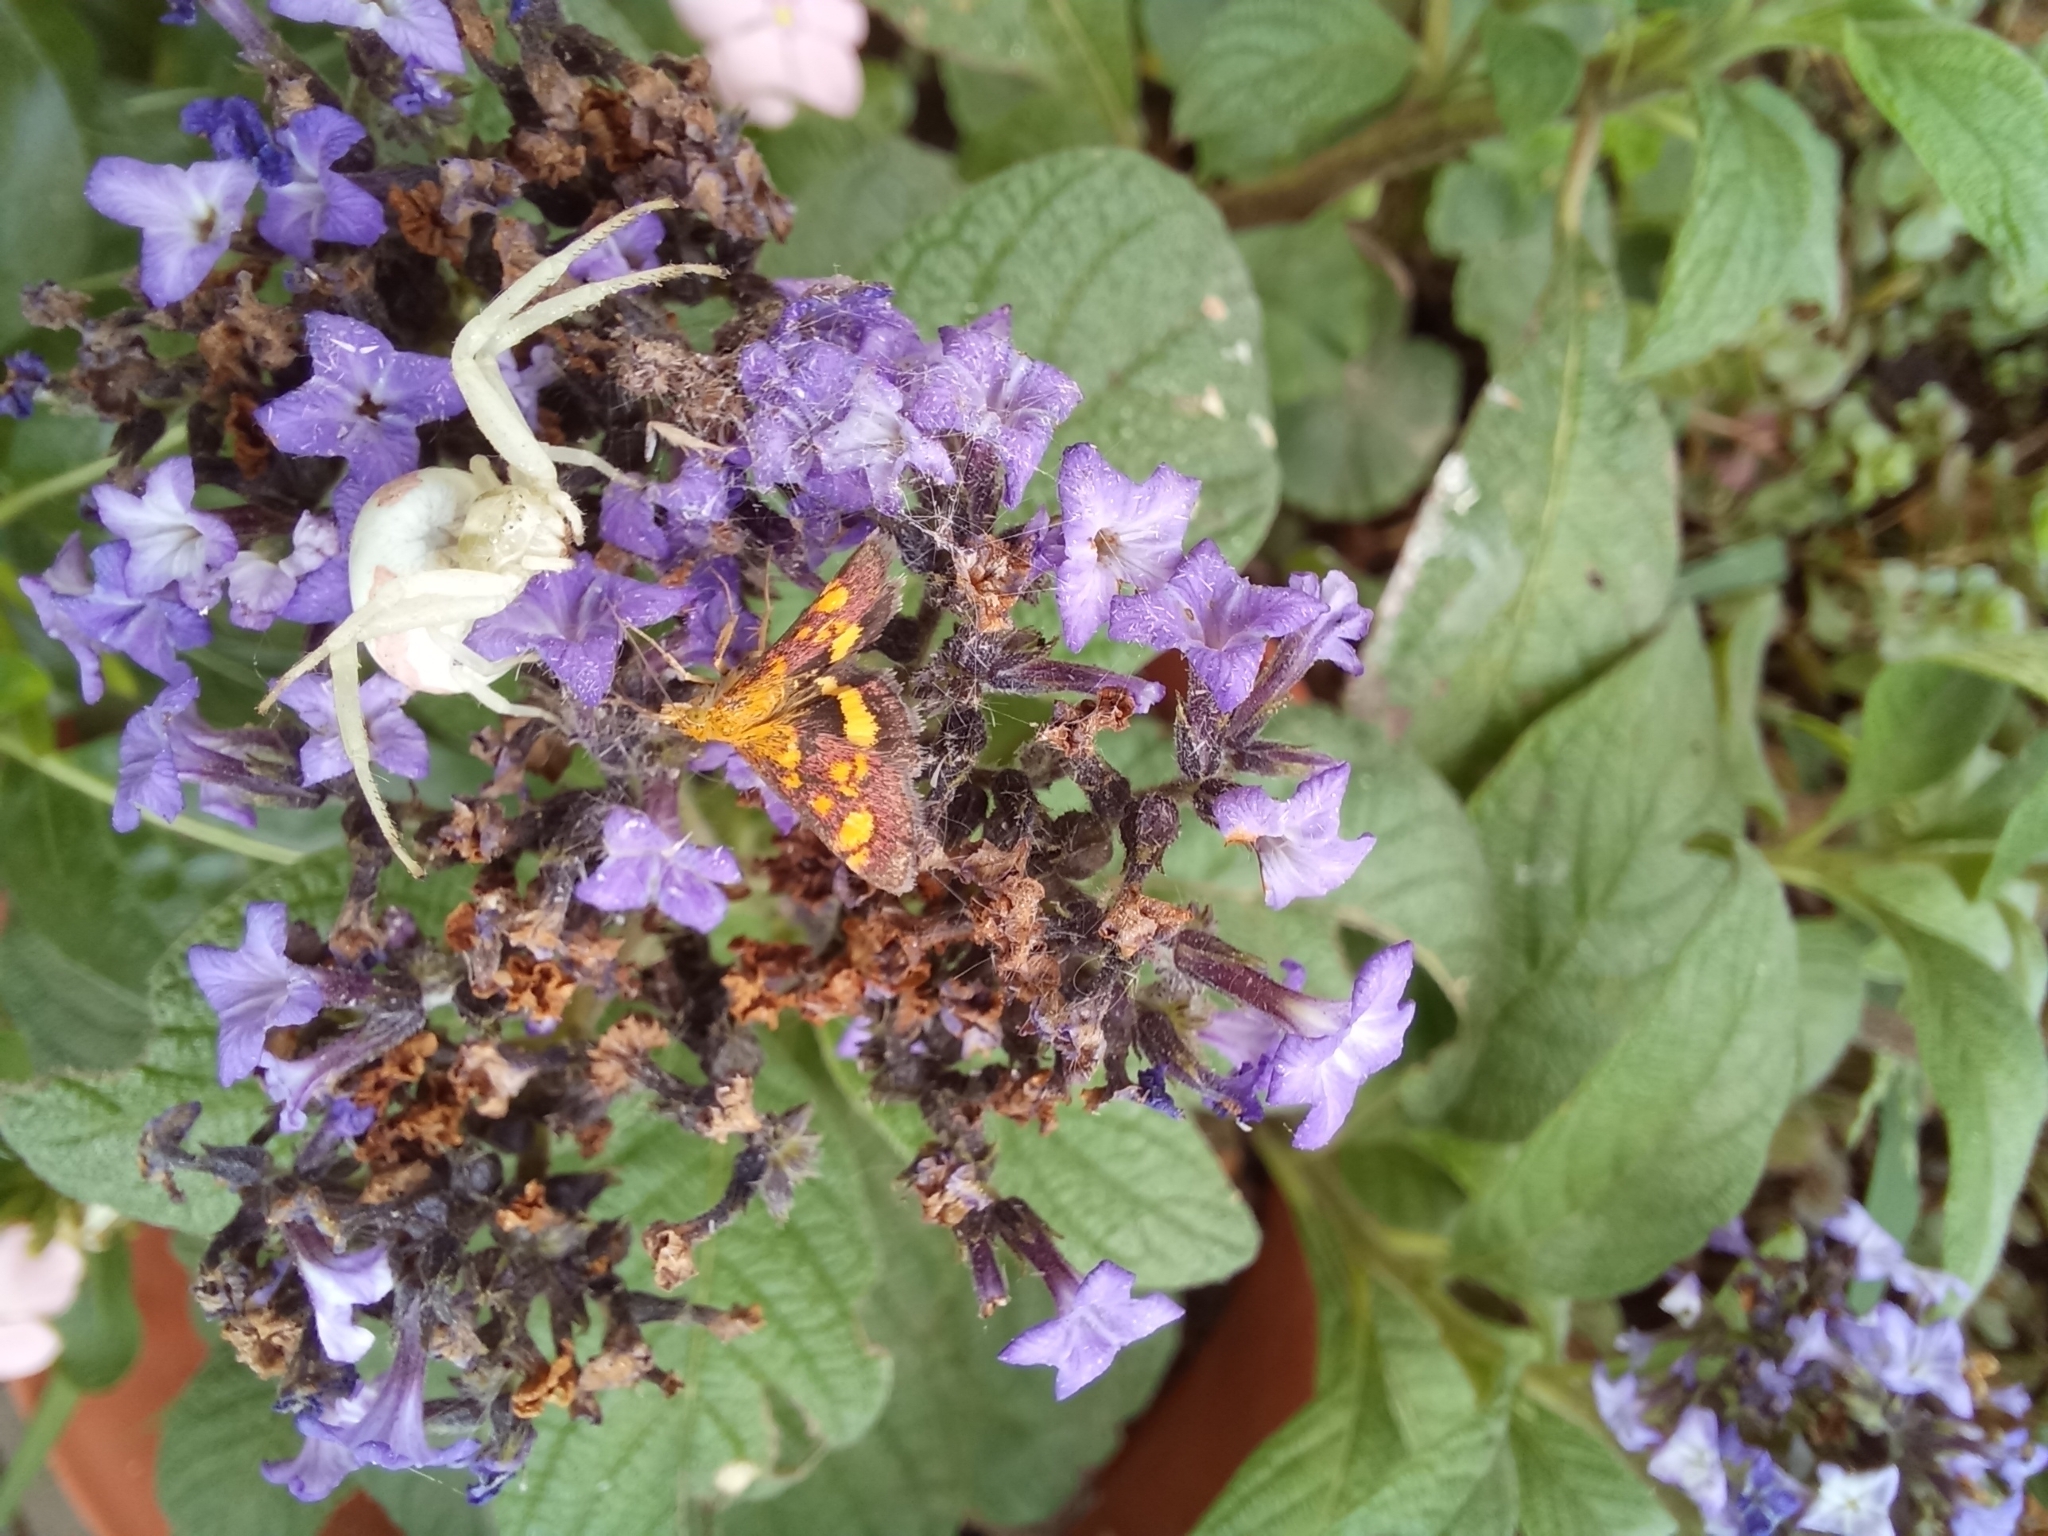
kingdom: Animalia
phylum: Arthropoda
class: Arachnida
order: Araneae
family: Thomisidae
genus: Misumena
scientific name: Misumena vatia
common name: Goldenrod crab spider
